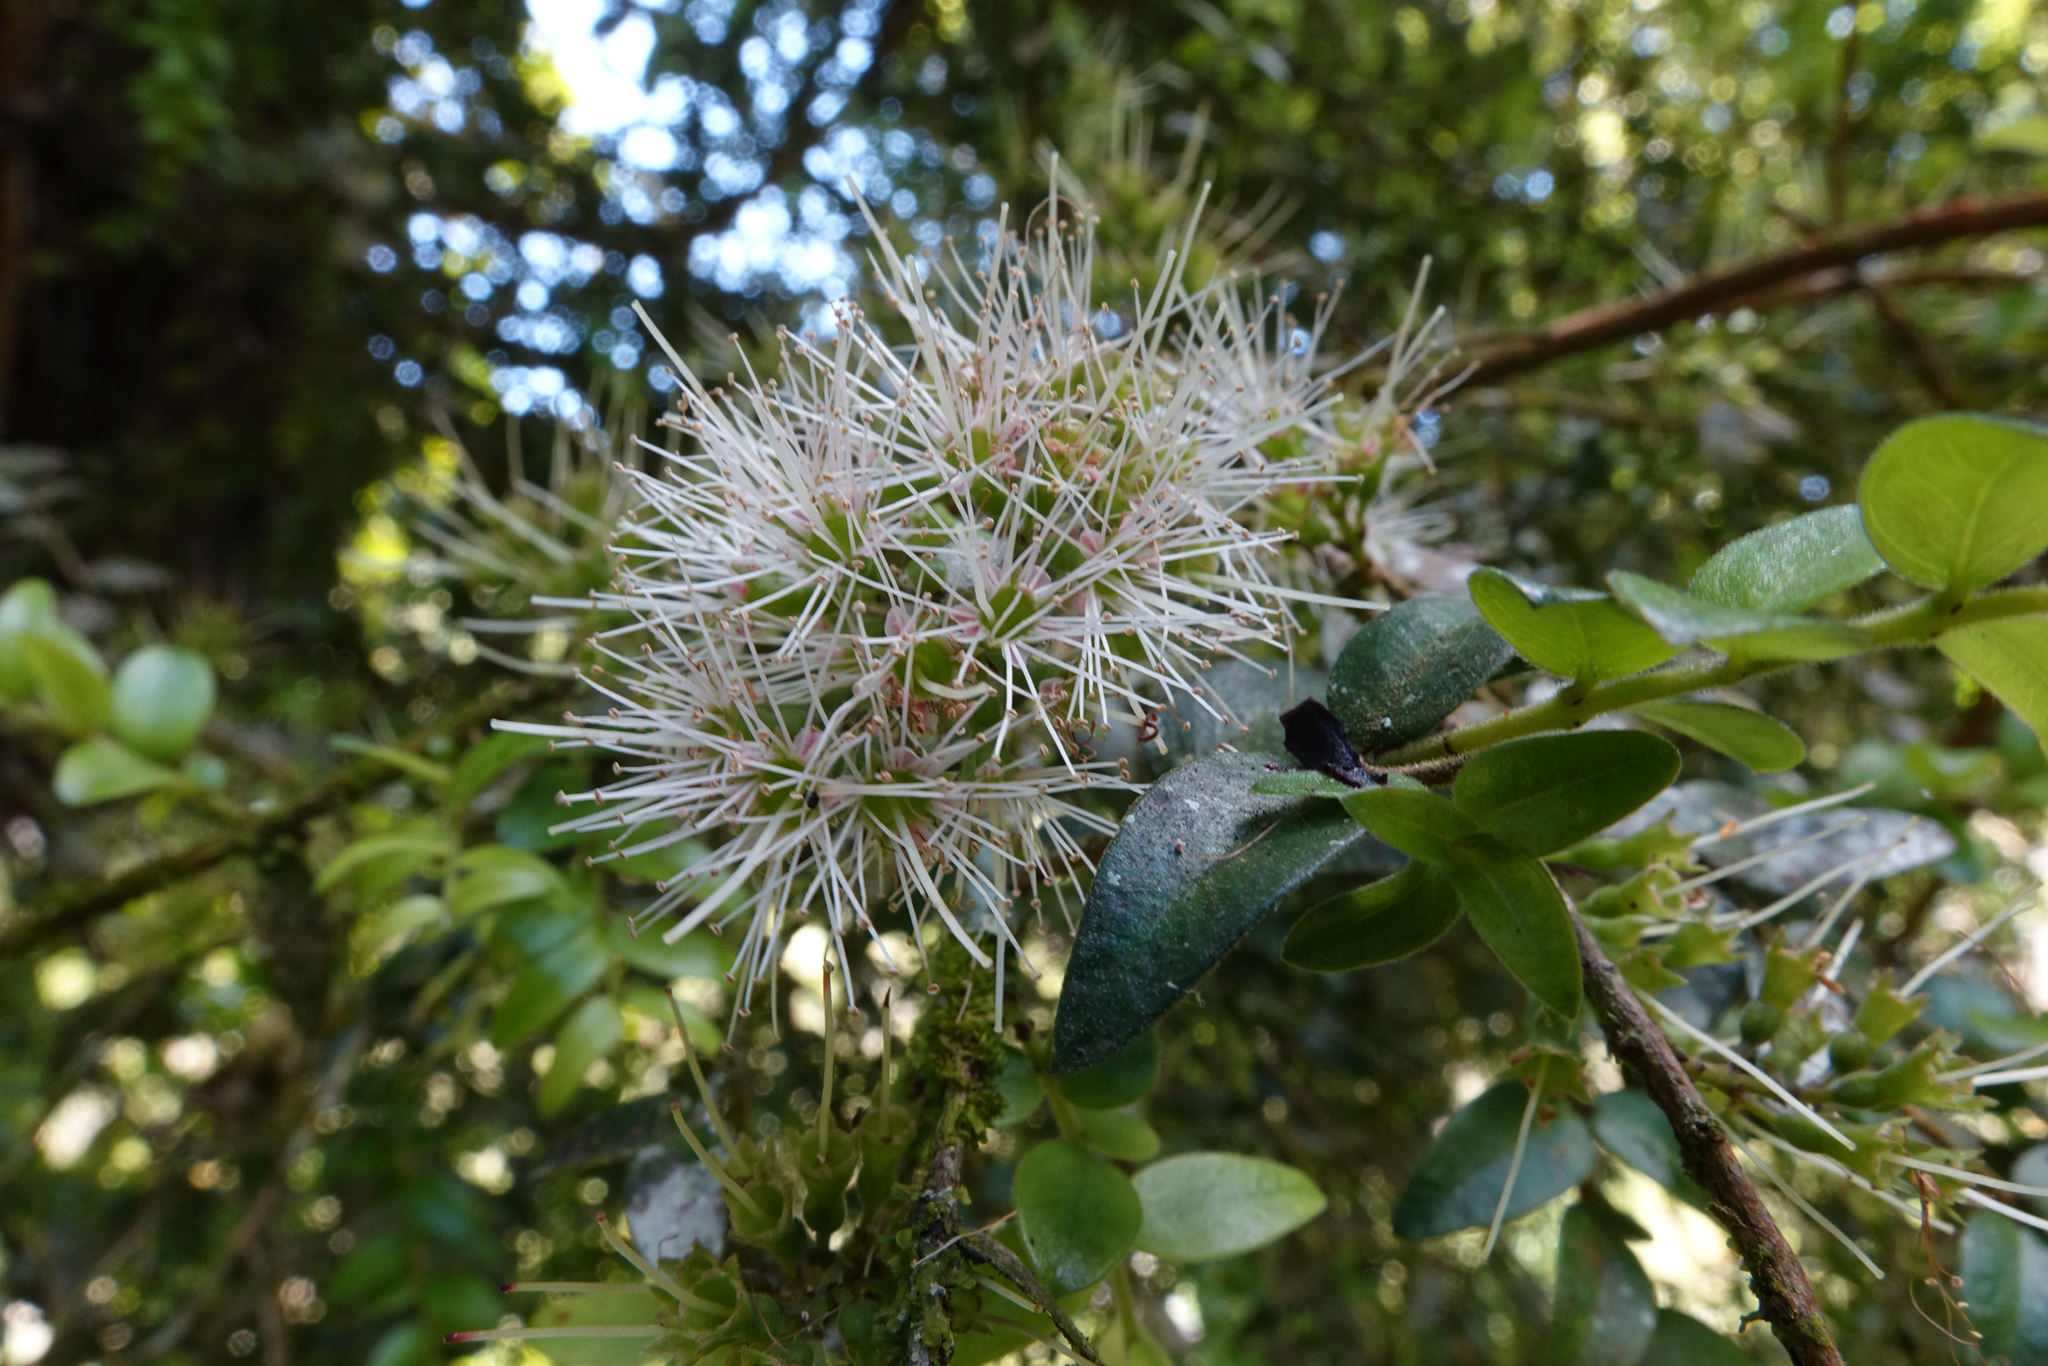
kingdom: Plantae
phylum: Tracheophyta
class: Magnoliopsida
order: Myrtales
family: Myrtaceae
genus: Metrosideros
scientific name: Metrosideros colensoi
